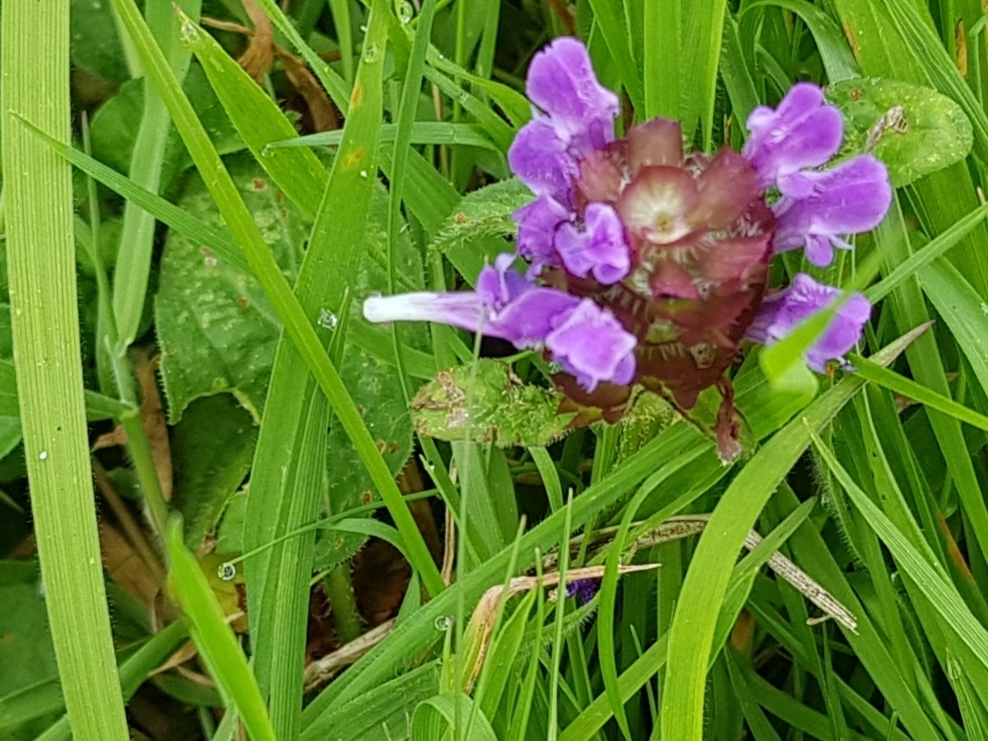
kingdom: Plantae
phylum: Tracheophyta
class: Magnoliopsida
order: Lamiales
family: Lamiaceae
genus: Prunella
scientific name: Prunella vulgaris
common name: Heal-all
